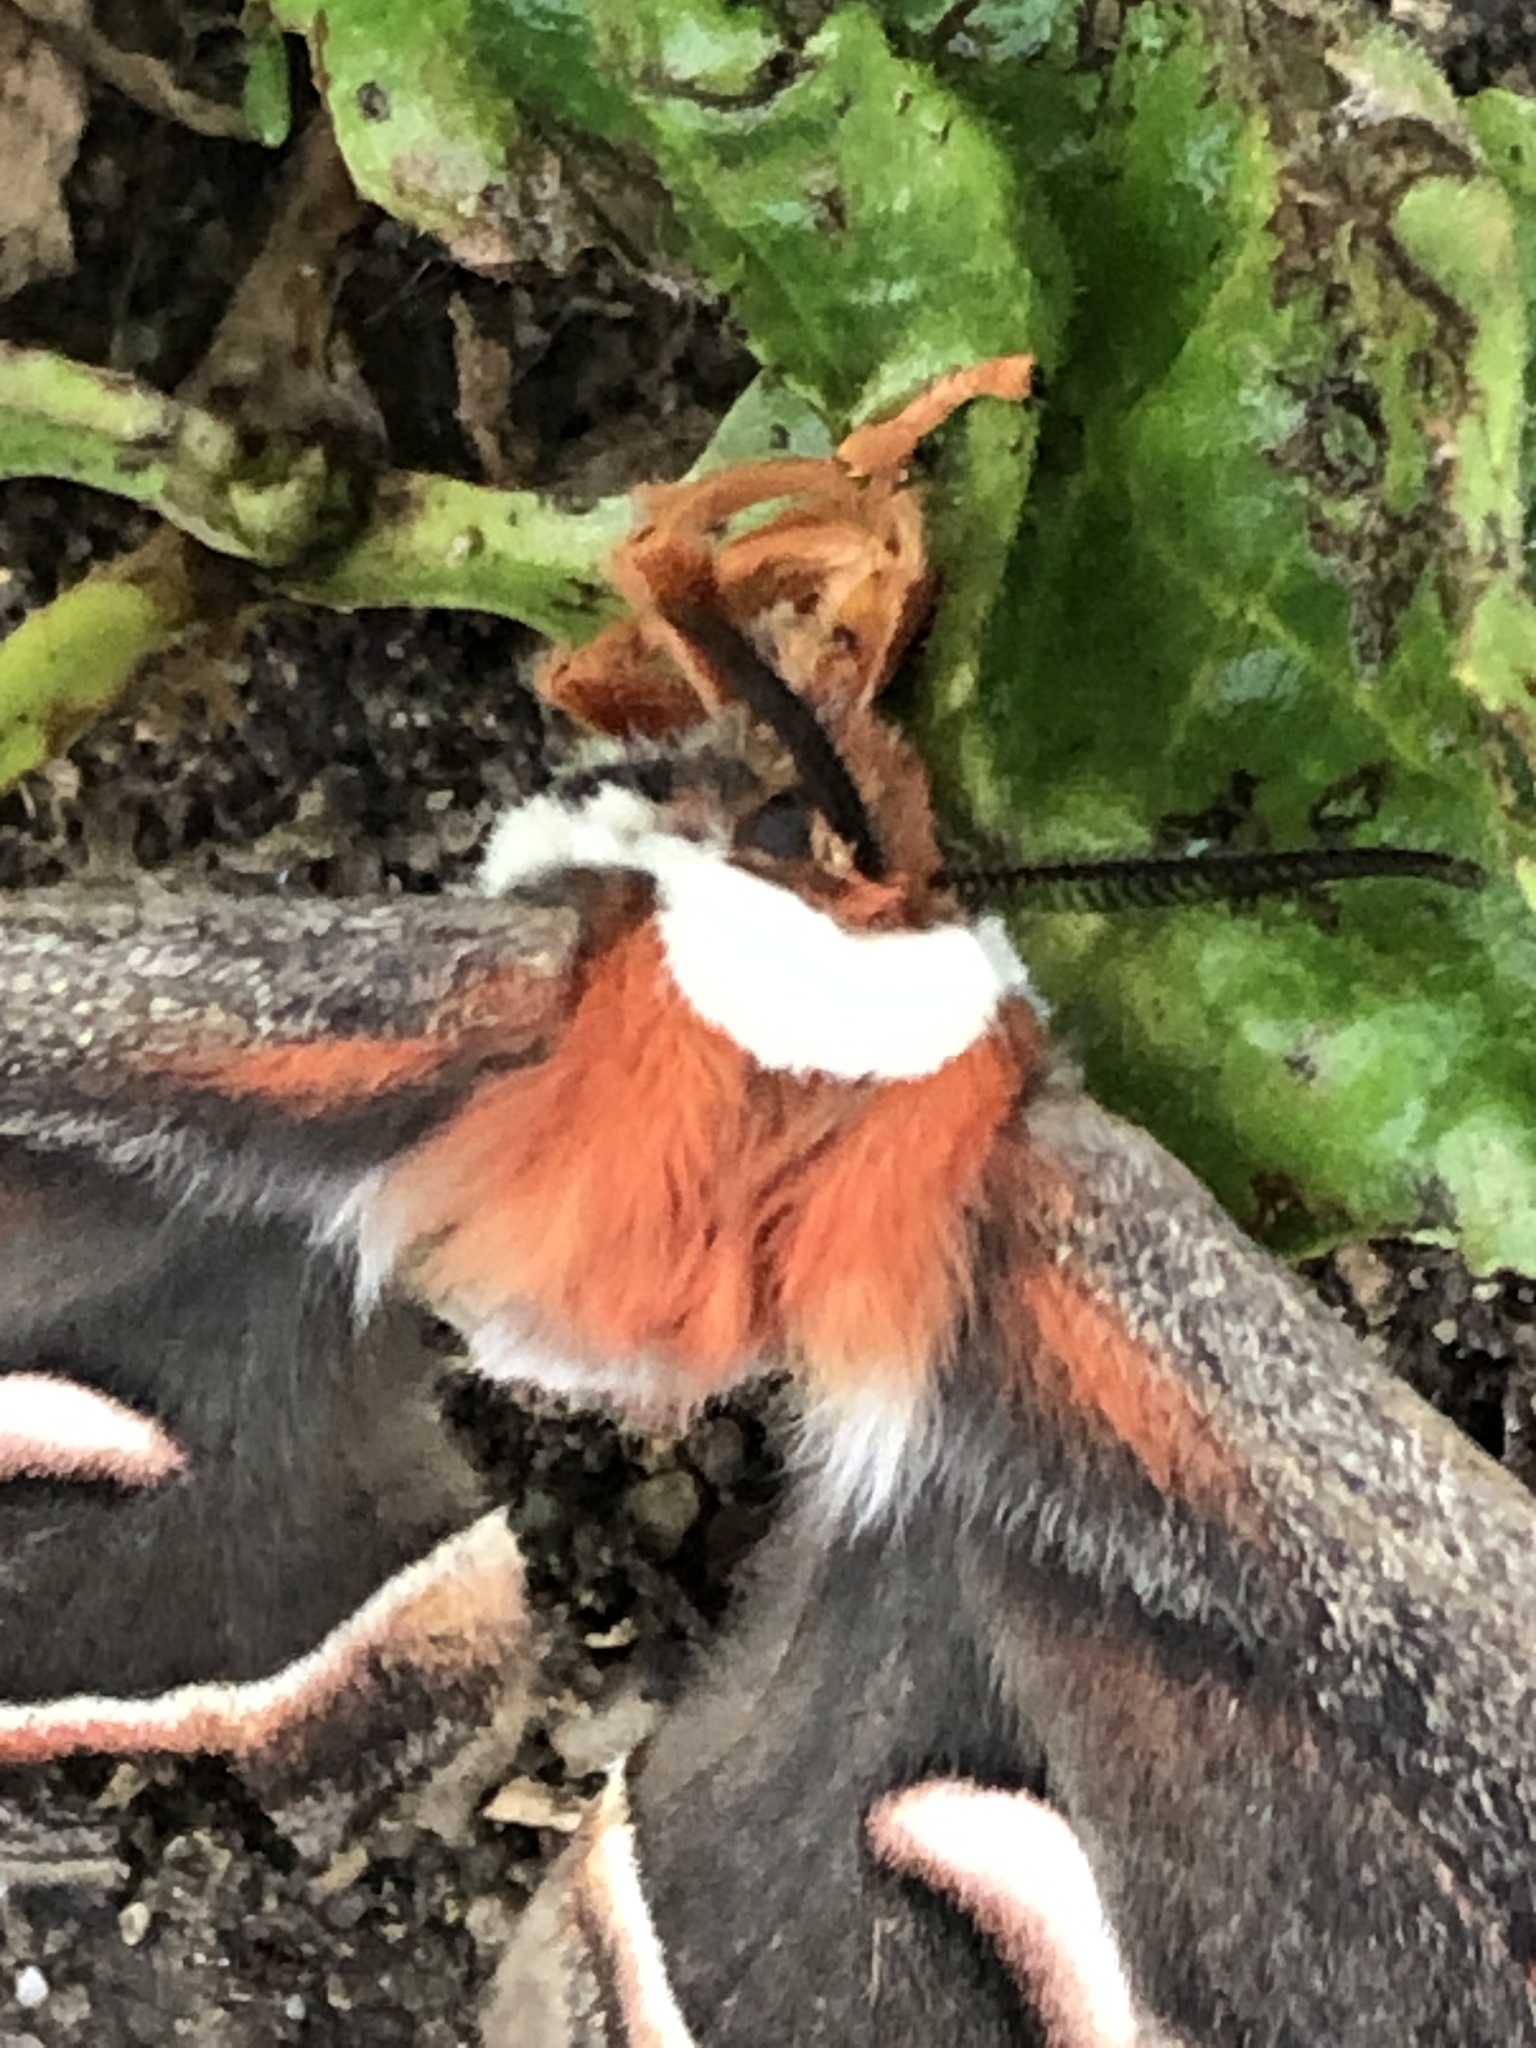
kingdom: Animalia
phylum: Arthropoda
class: Insecta
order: Lepidoptera
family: Saturniidae
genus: Hyalophora
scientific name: Hyalophora cecropia
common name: Cecropia silkmoth
